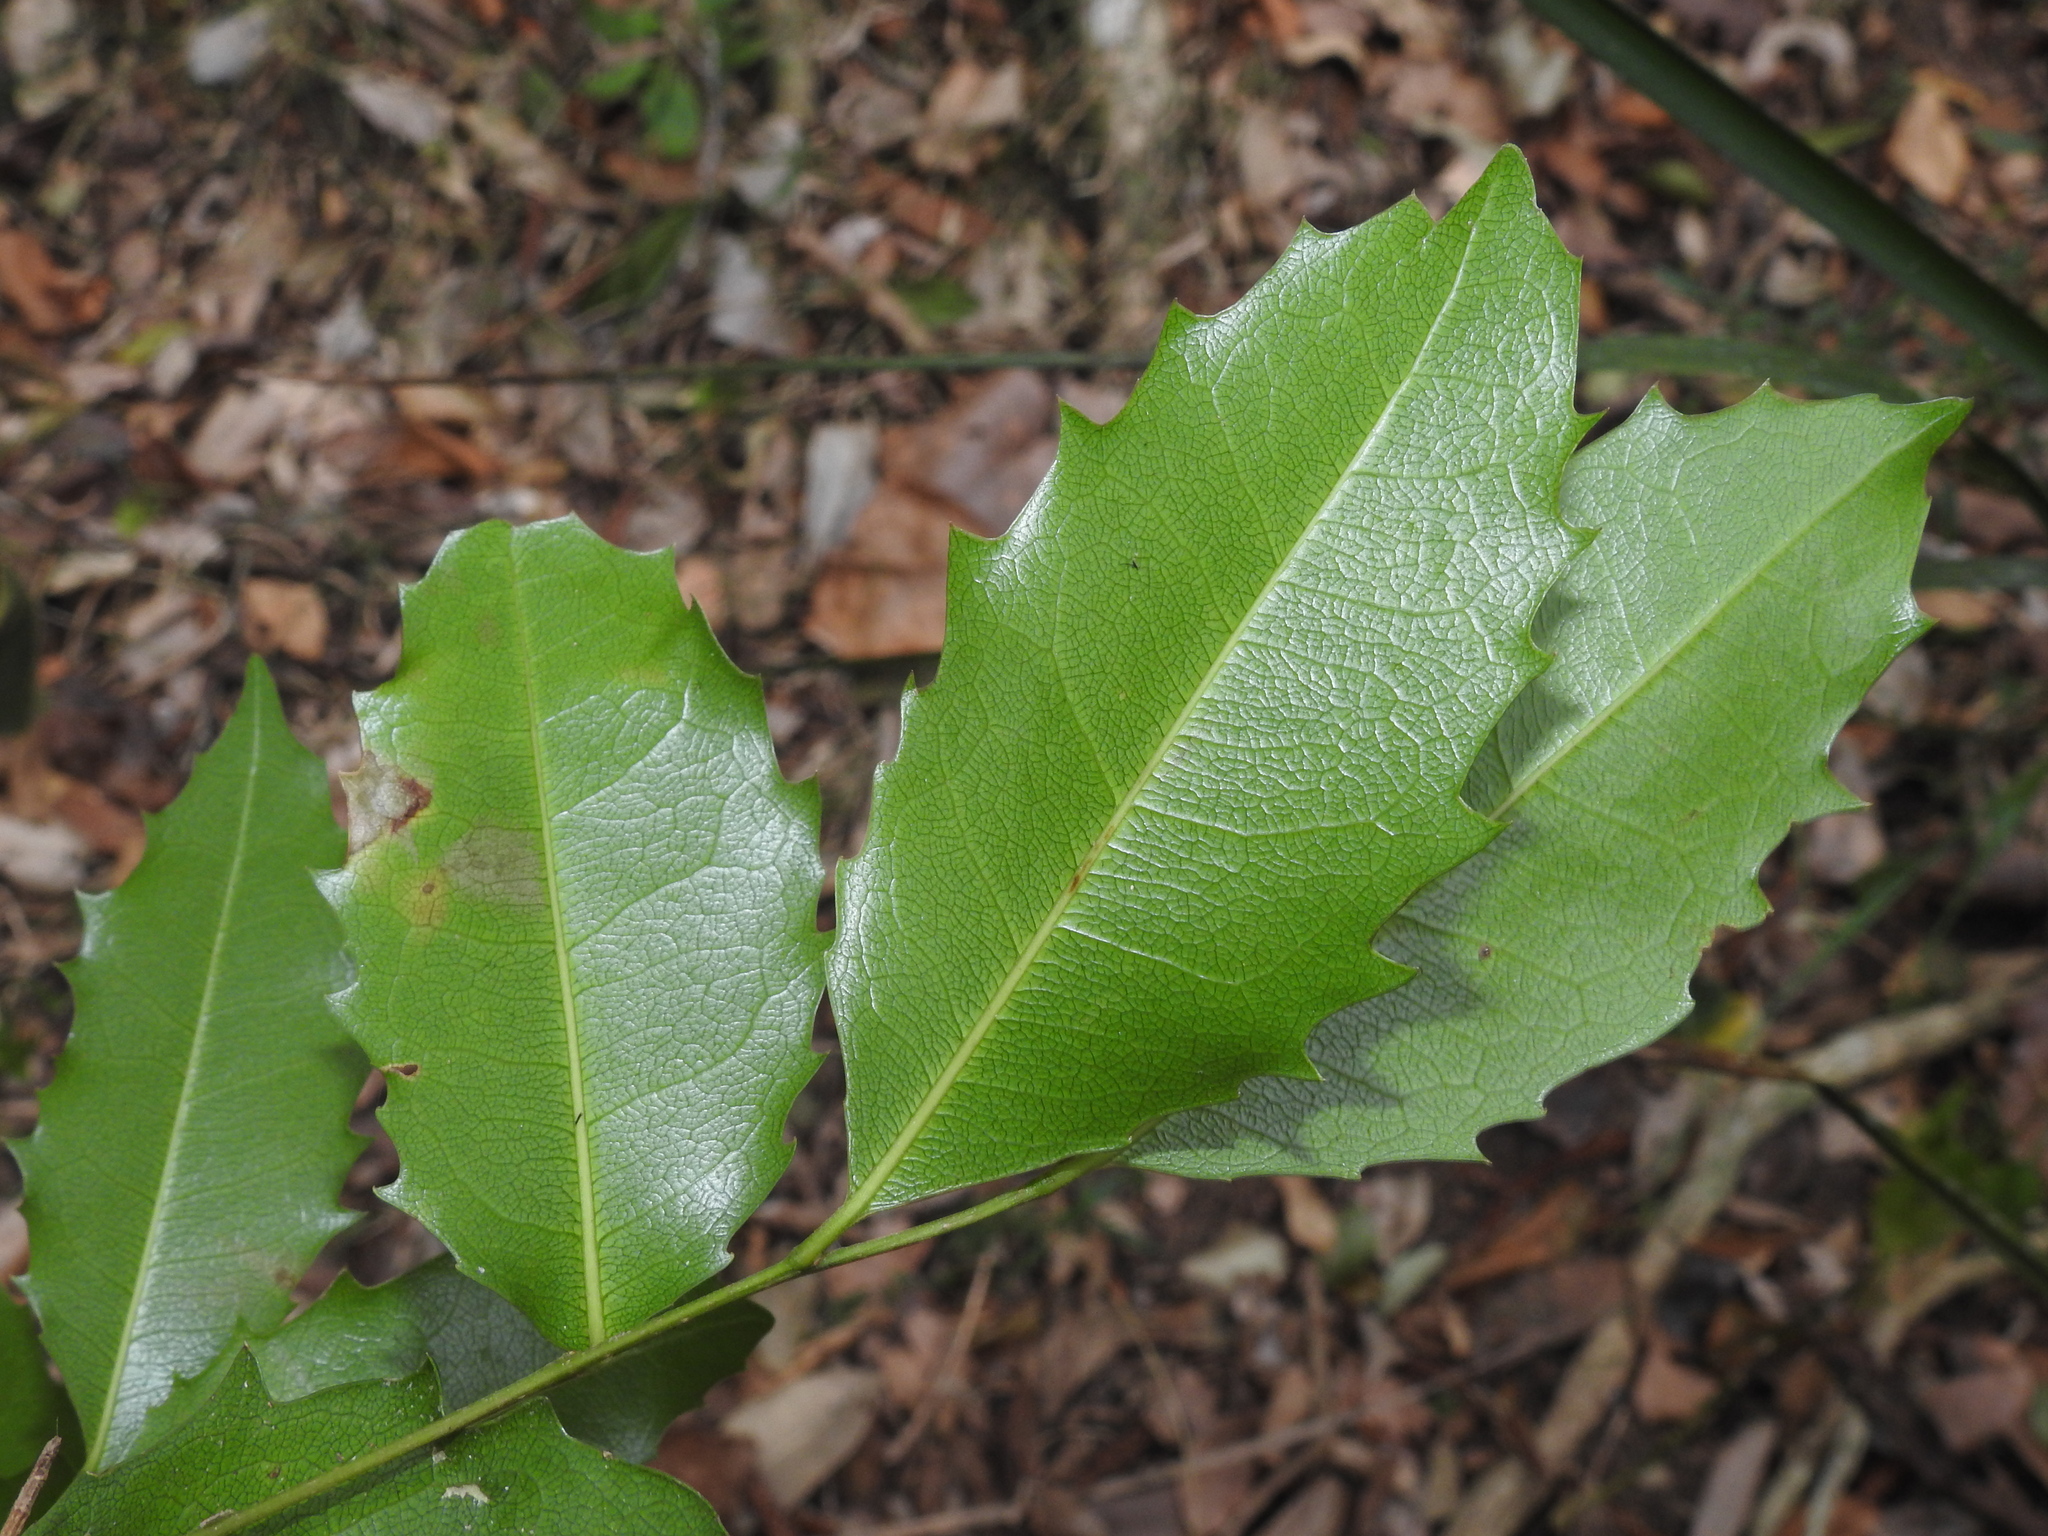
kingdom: Plantae
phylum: Tracheophyta
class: Magnoliopsida
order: Malpighiales
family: Putranjivaceae
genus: Drypetes
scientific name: Drypetes deplanchei
